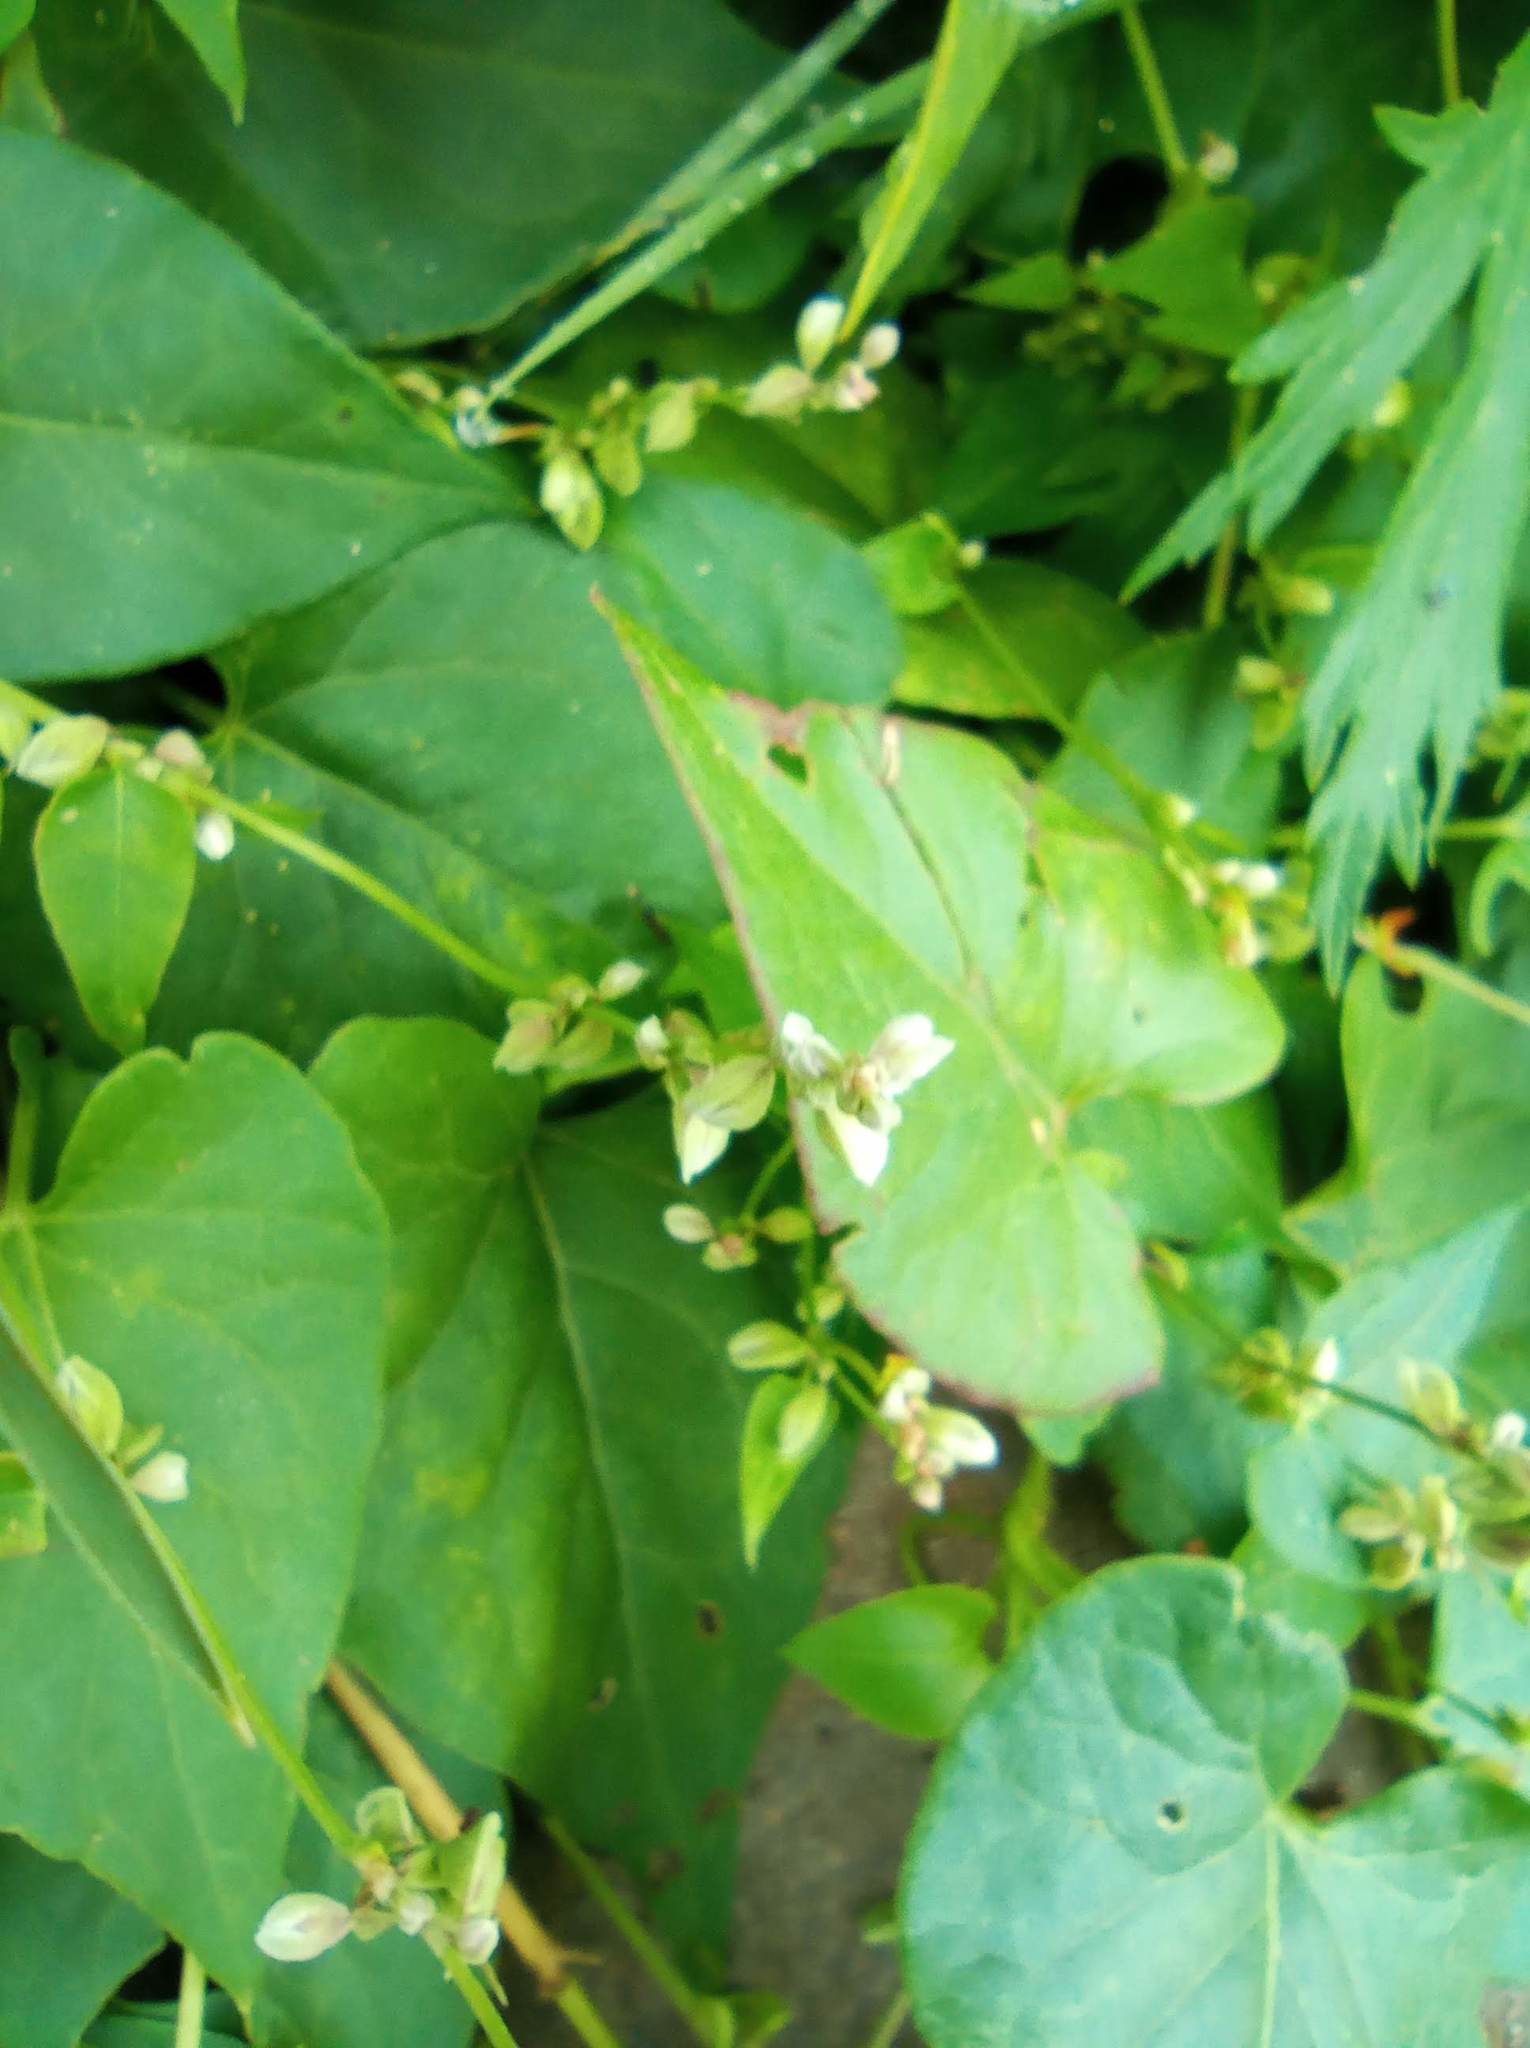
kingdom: Plantae
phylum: Tracheophyta
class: Magnoliopsida
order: Caryophyllales
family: Polygonaceae
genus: Fallopia
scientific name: Fallopia convolvulus
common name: Black bindweed
